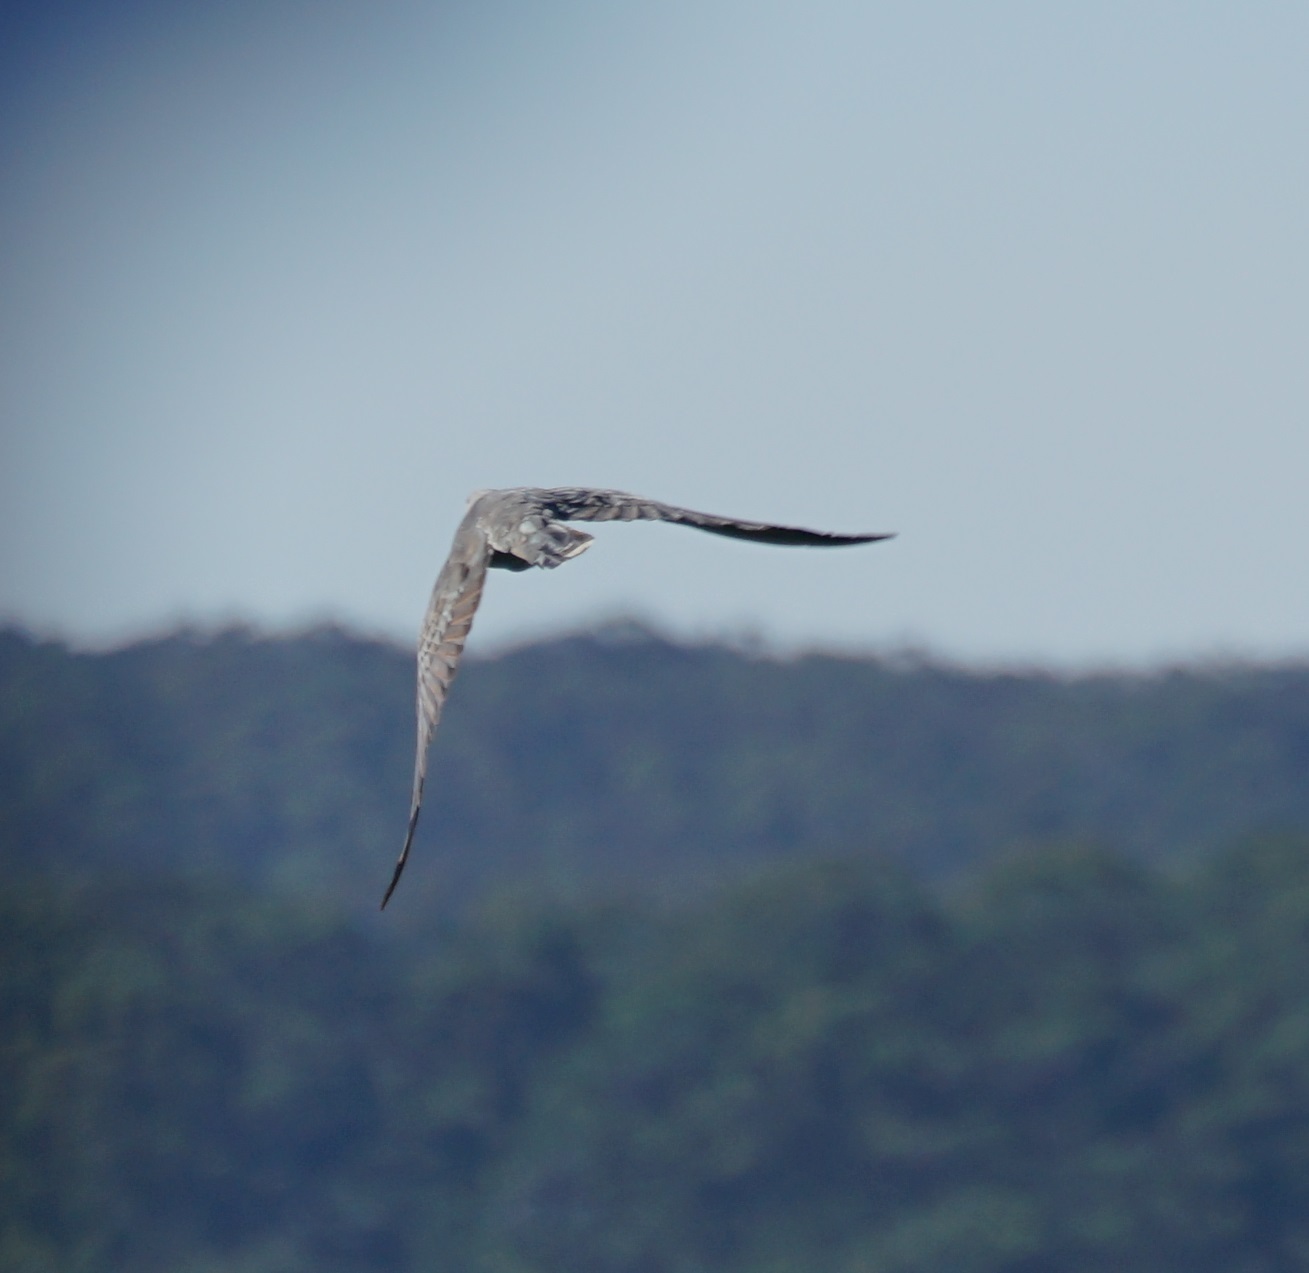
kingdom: Animalia
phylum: Chordata
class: Aves
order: Cuculiformes
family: Cuculidae
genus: Scythrops
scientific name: Scythrops novaehollandiae
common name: Channel-billed cuckoo
